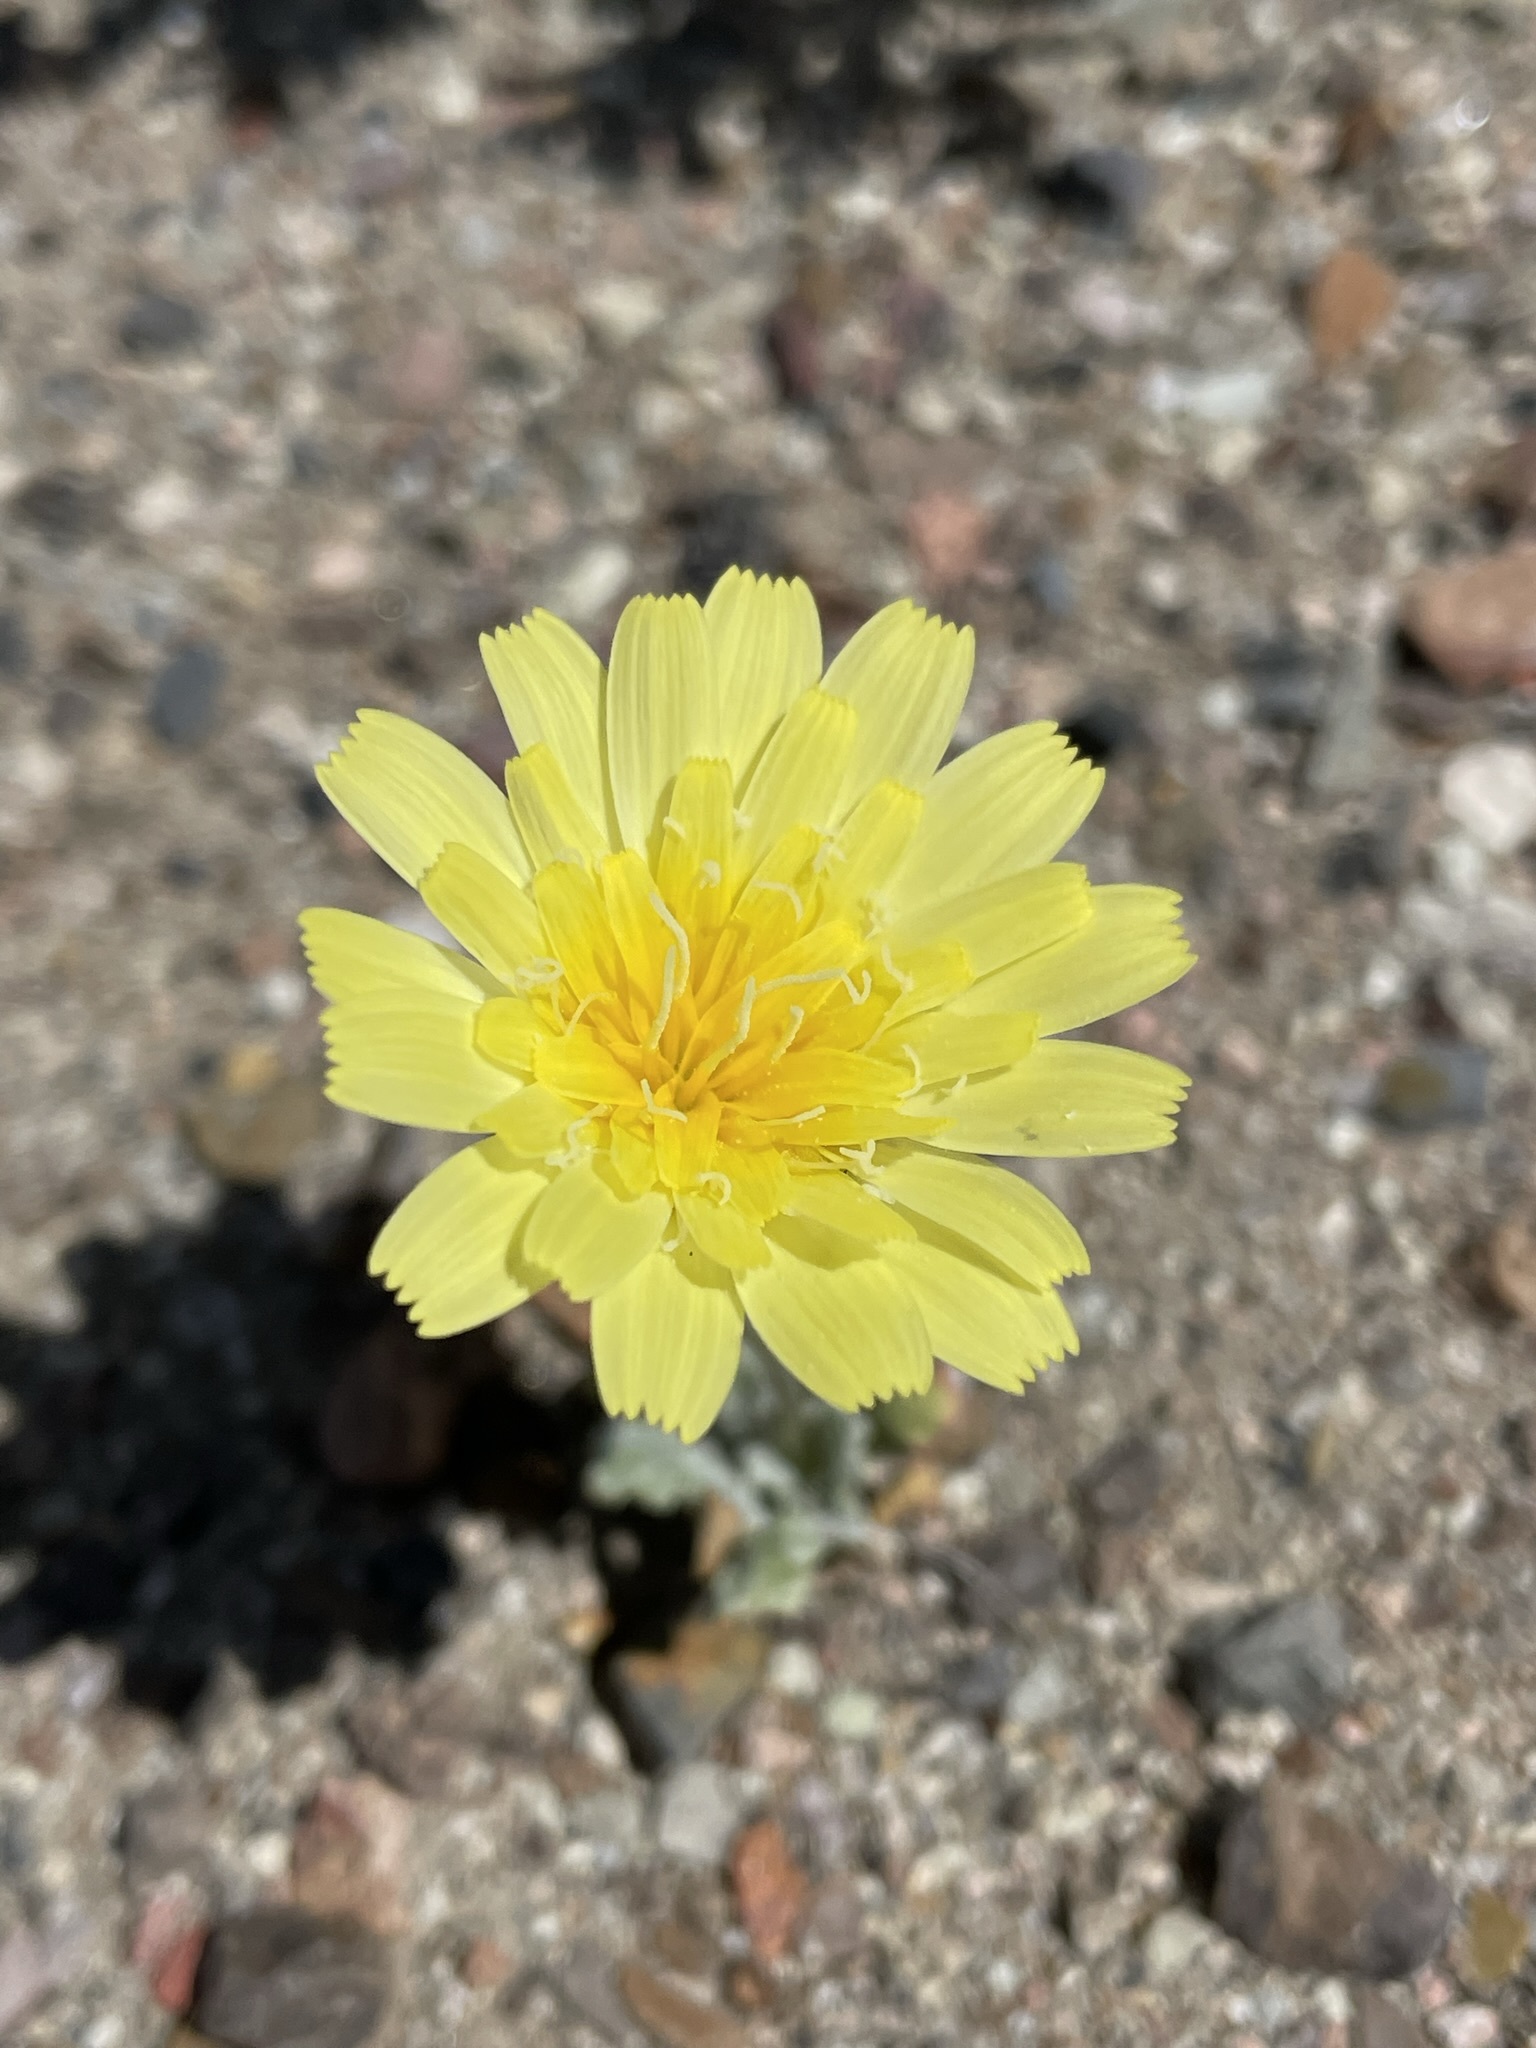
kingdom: Plantae
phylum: Tracheophyta
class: Magnoliopsida
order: Asterales
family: Asteraceae
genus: Anisocoma
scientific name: Anisocoma acaulis
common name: Scalebud
